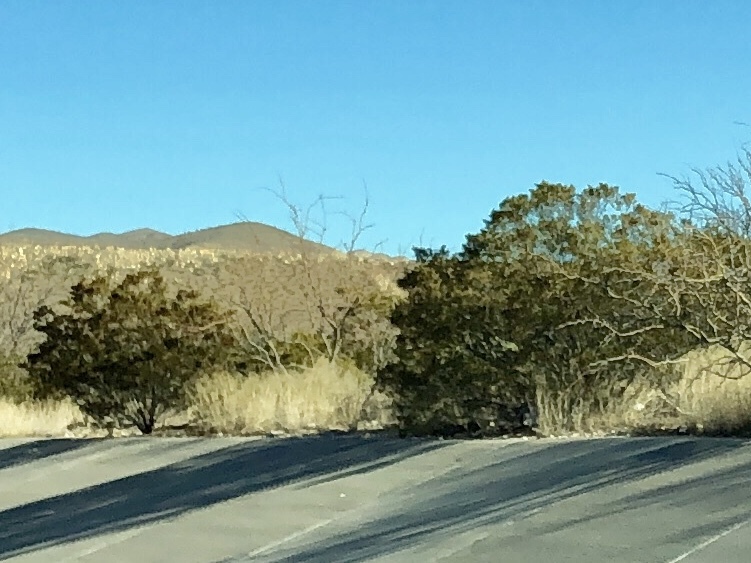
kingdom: Plantae
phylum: Tracheophyta
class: Magnoliopsida
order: Zygophyllales
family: Zygophyllaceae
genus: Larrea
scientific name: Larrea tridentata
